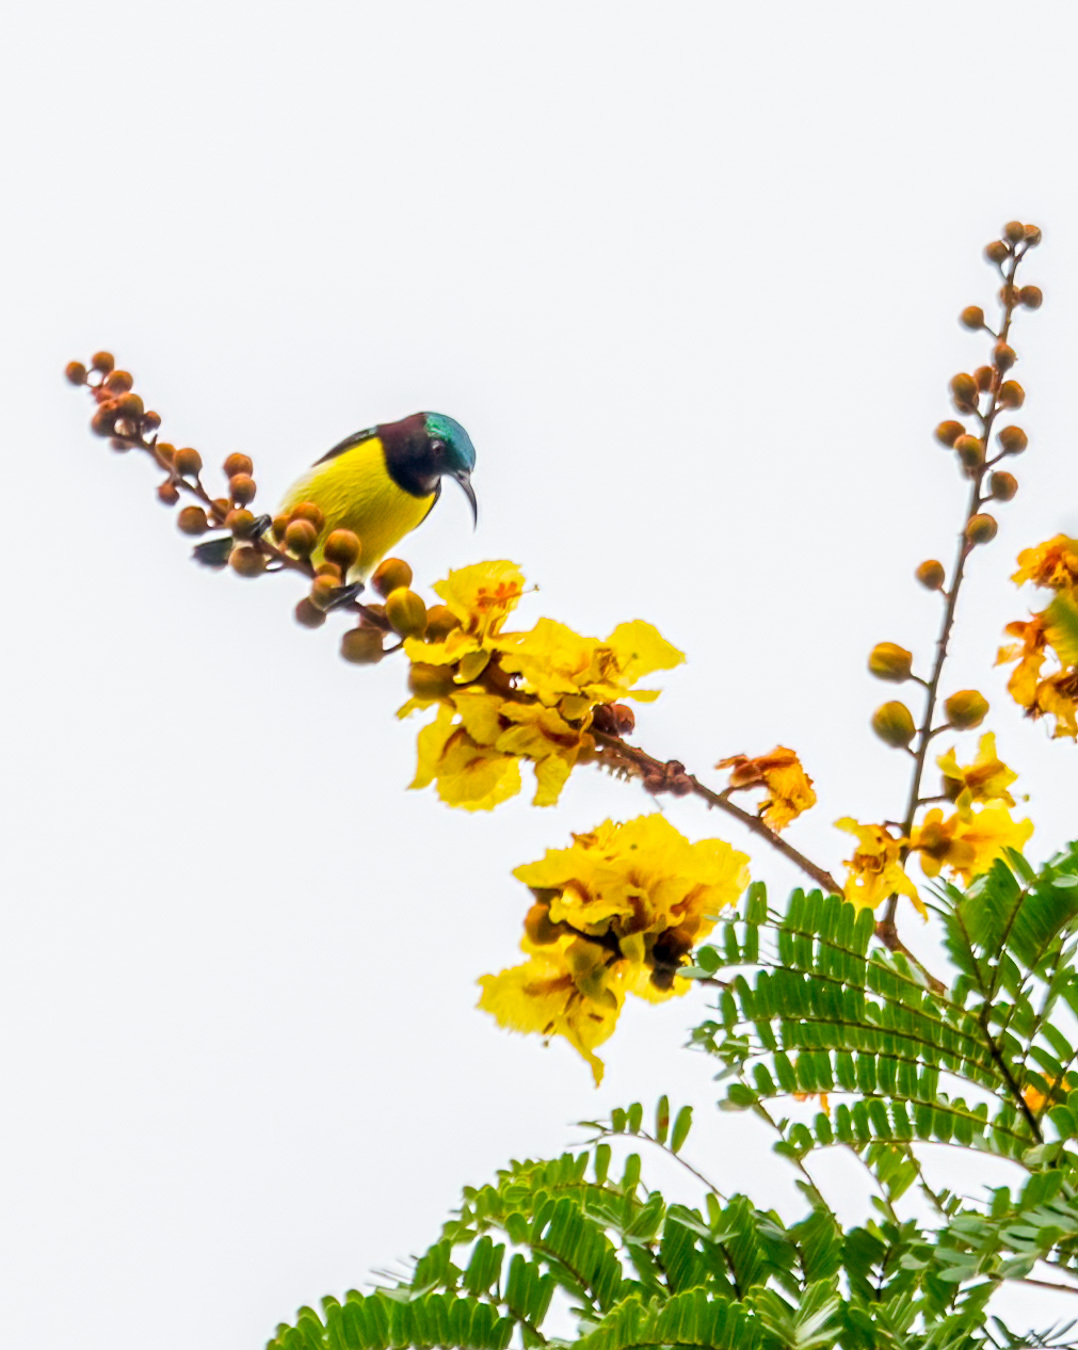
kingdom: Animalia
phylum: Chordata
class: Aves
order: Passeriformes
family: Nectariniidae
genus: Leptocoma
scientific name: Leptocoma zeylonica
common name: Purple-rumped sunbird
